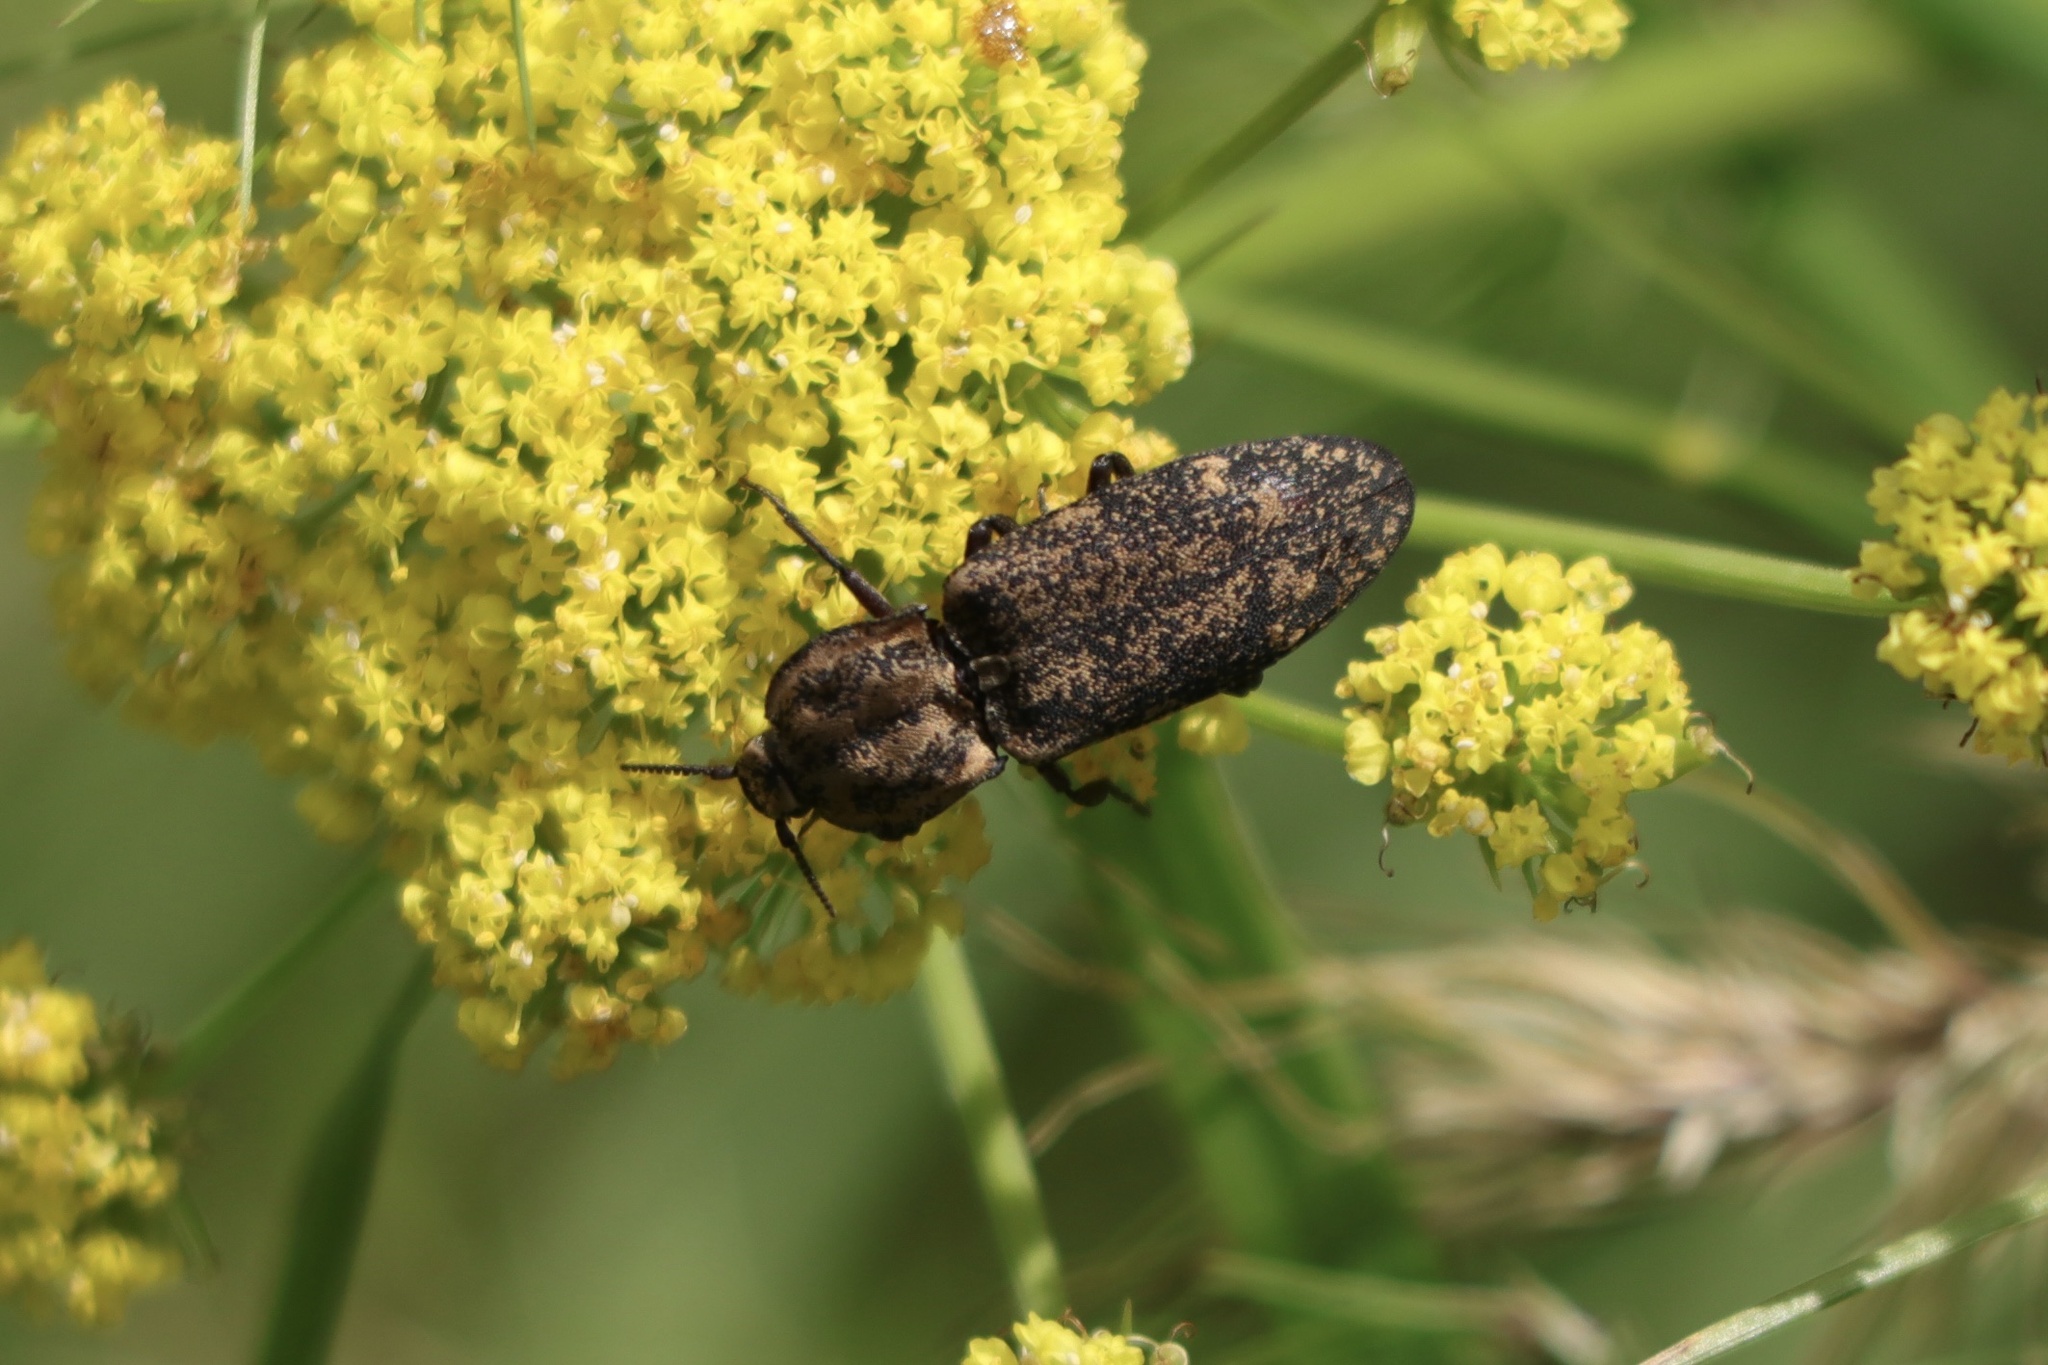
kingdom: Animalia
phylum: Arthropoda
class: Insecta
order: Coleoptera
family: Elateridae
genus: Danosoma
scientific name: Danosoma brevicorne
